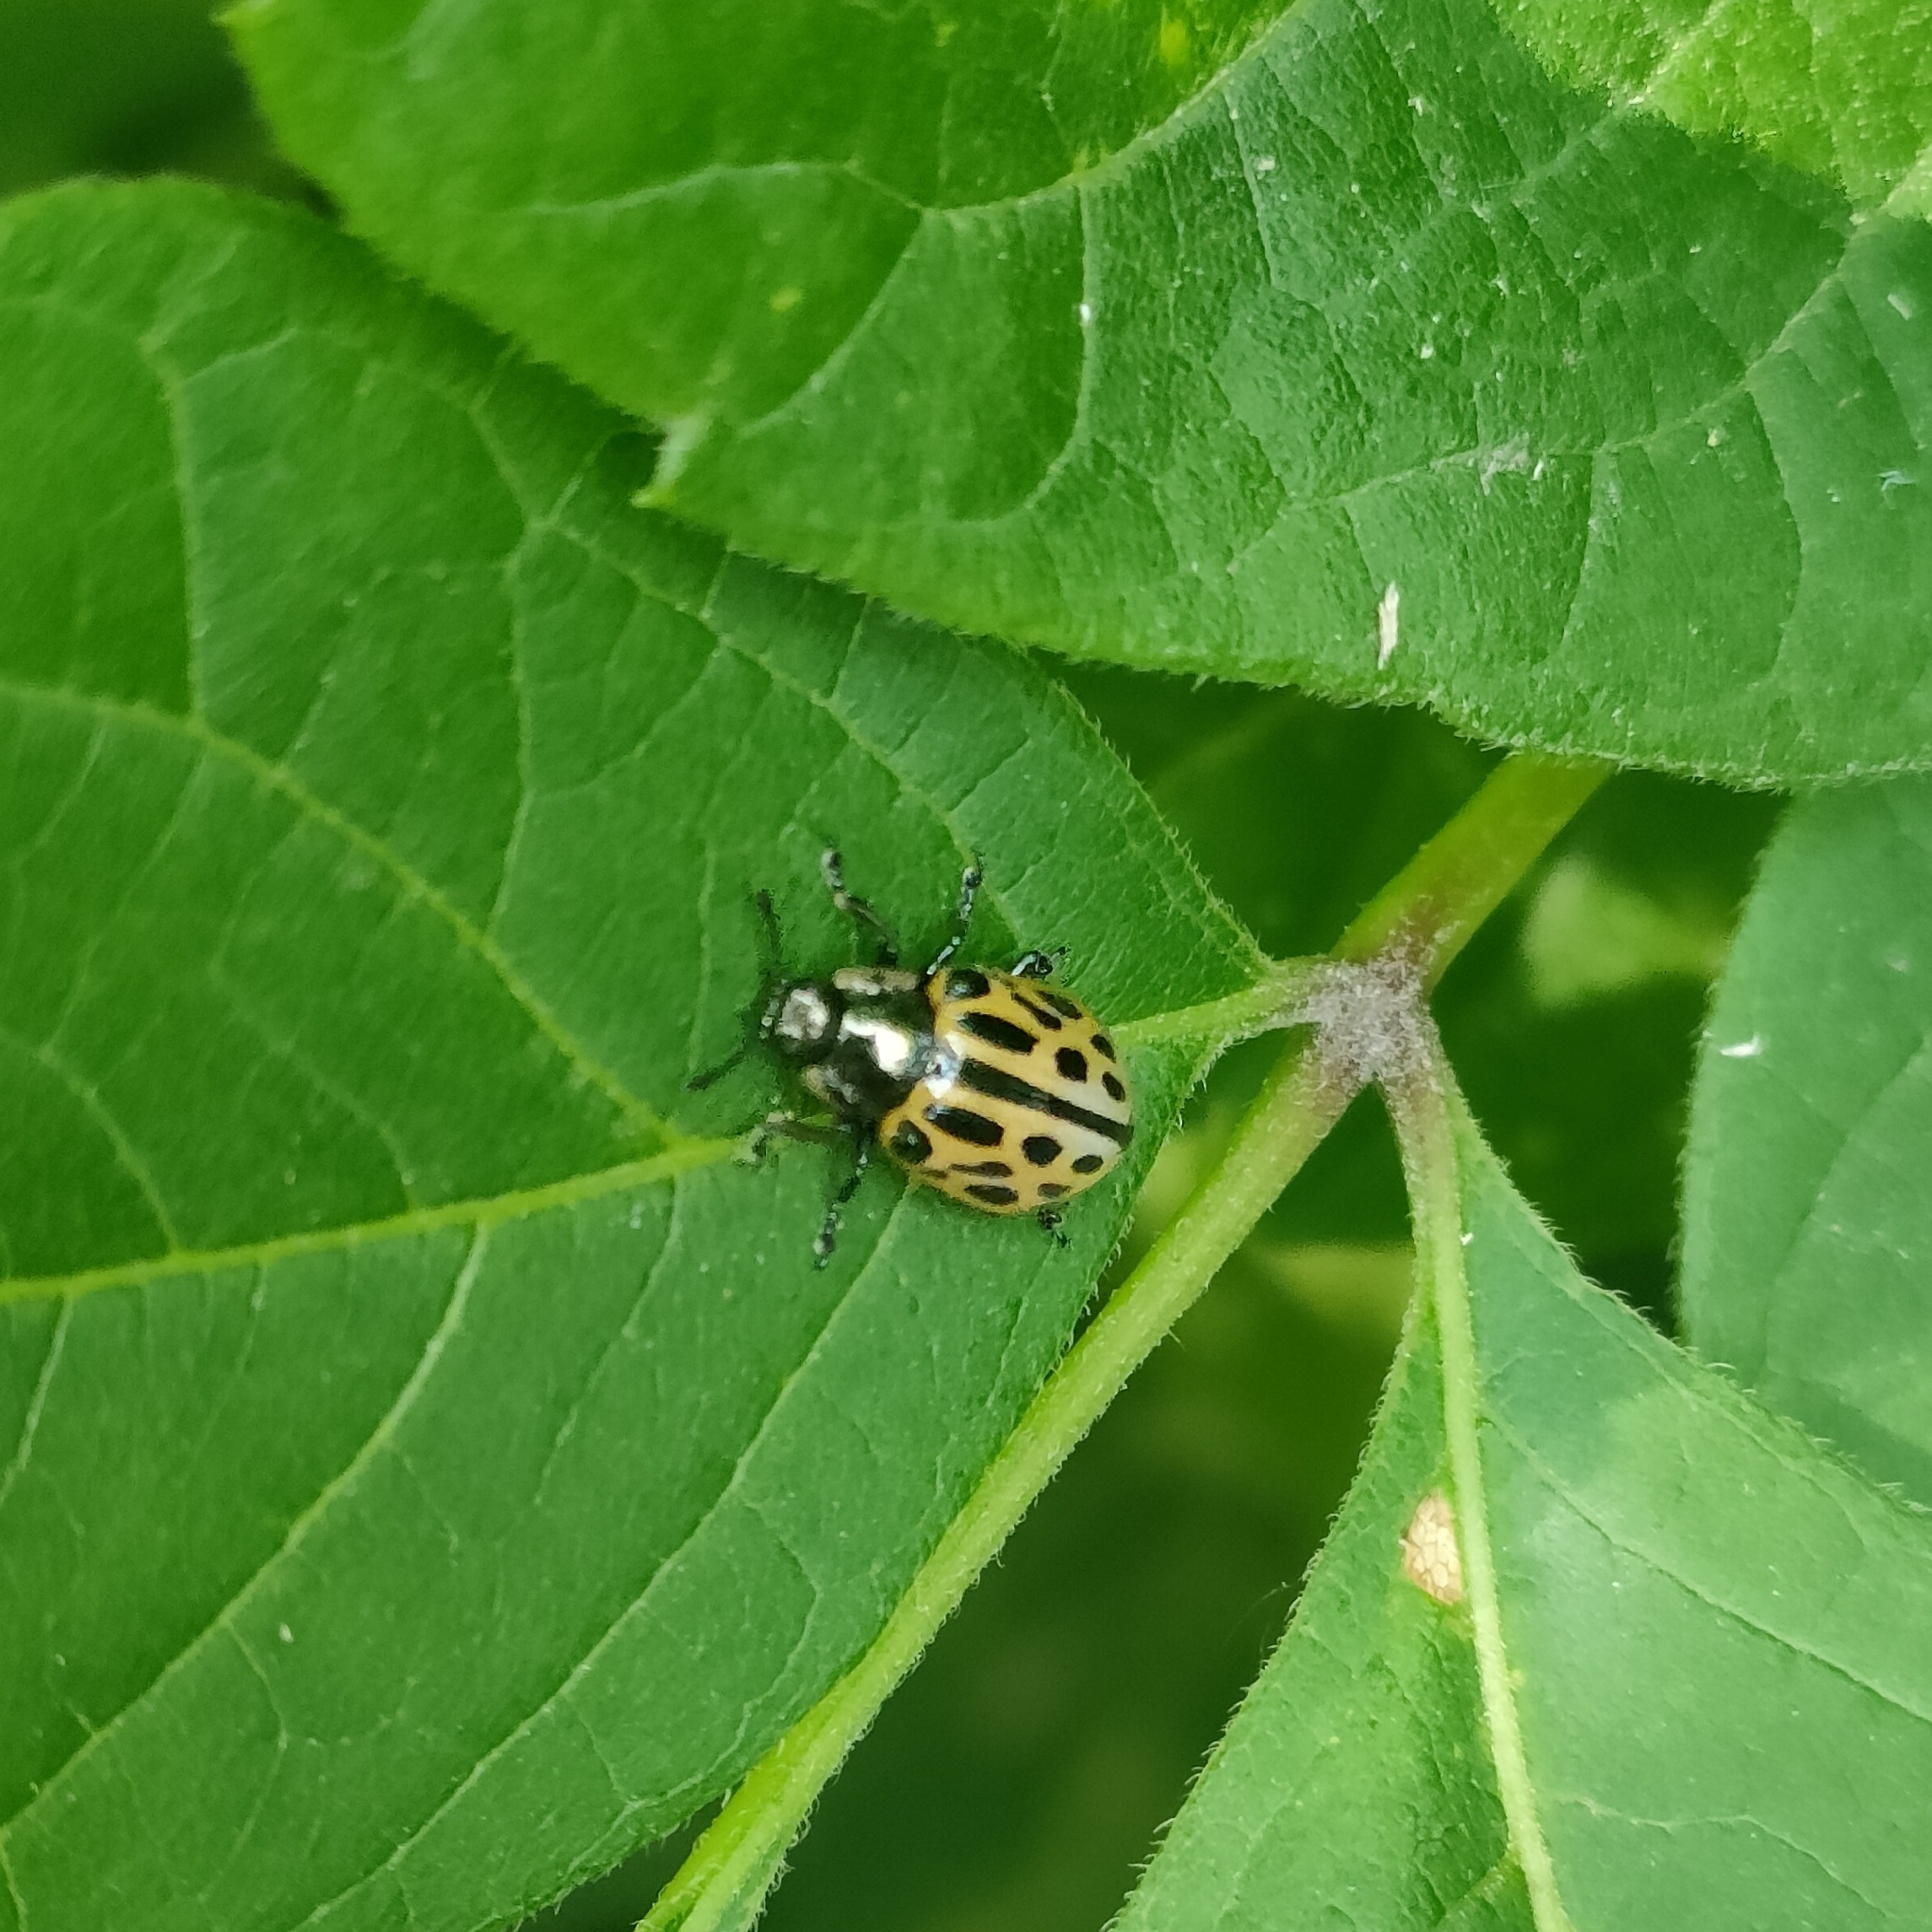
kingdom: Animalia
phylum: Arthropoda
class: Insecta
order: Coleoptera
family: Chrysomelidae
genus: Chrysomela
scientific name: Chrysomela vigintipunctata
